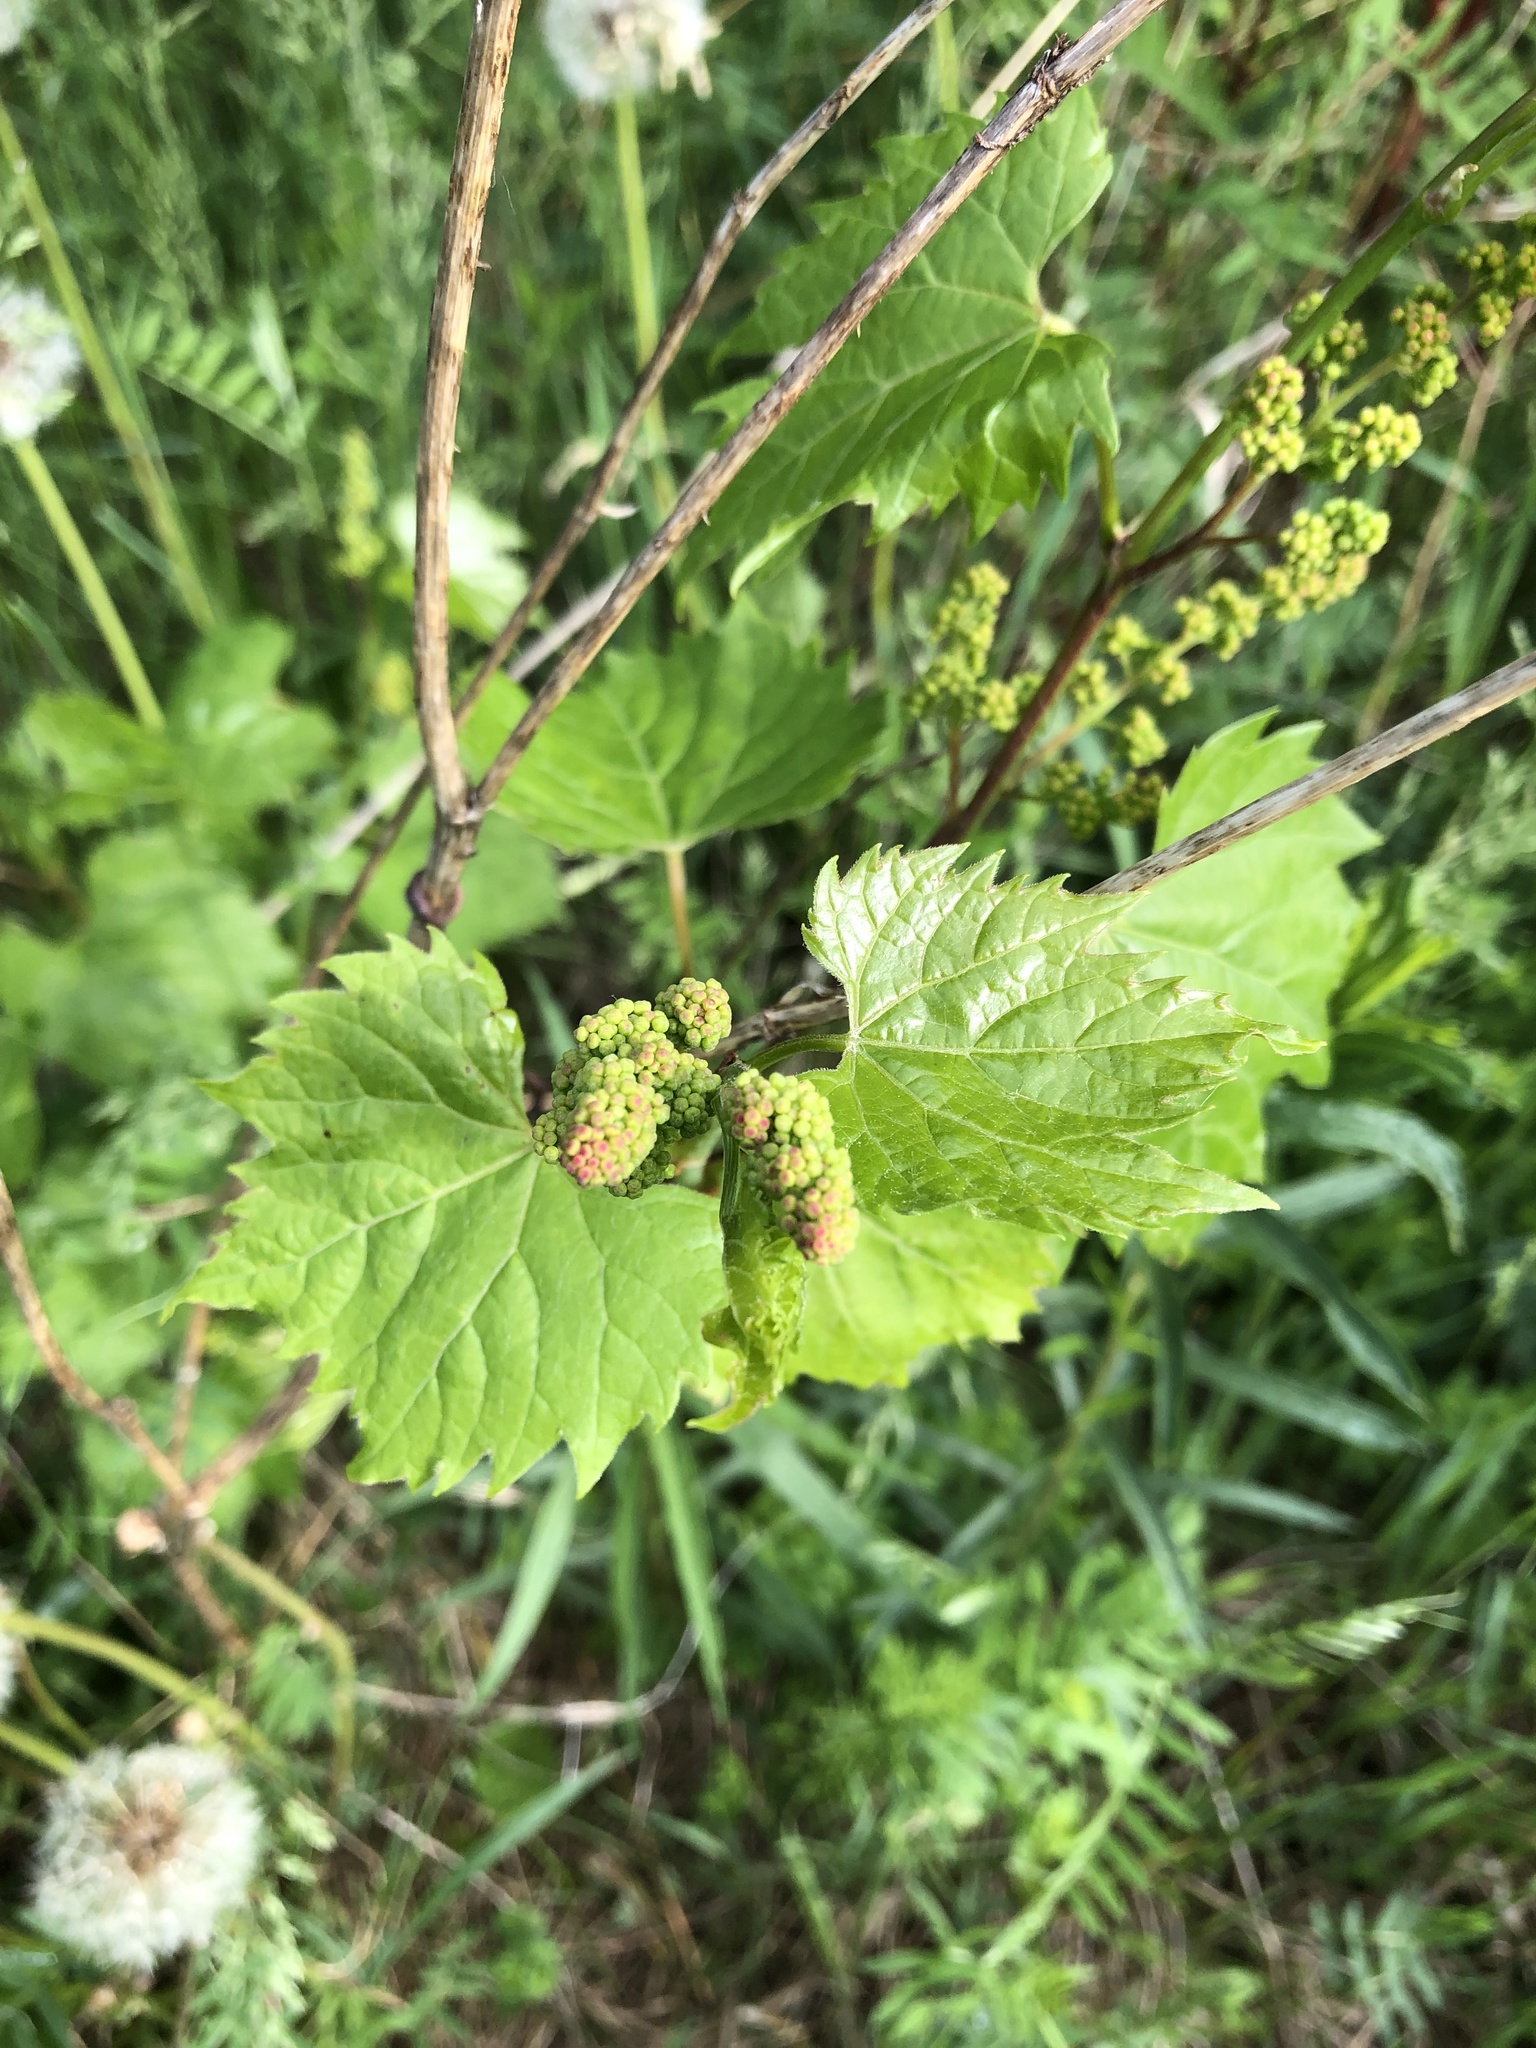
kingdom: Plantae
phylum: Tracheophyta
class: Magnoliopsida
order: Vitales
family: Vitaceae
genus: Vitis
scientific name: Vitis riparia
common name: Frost grape
